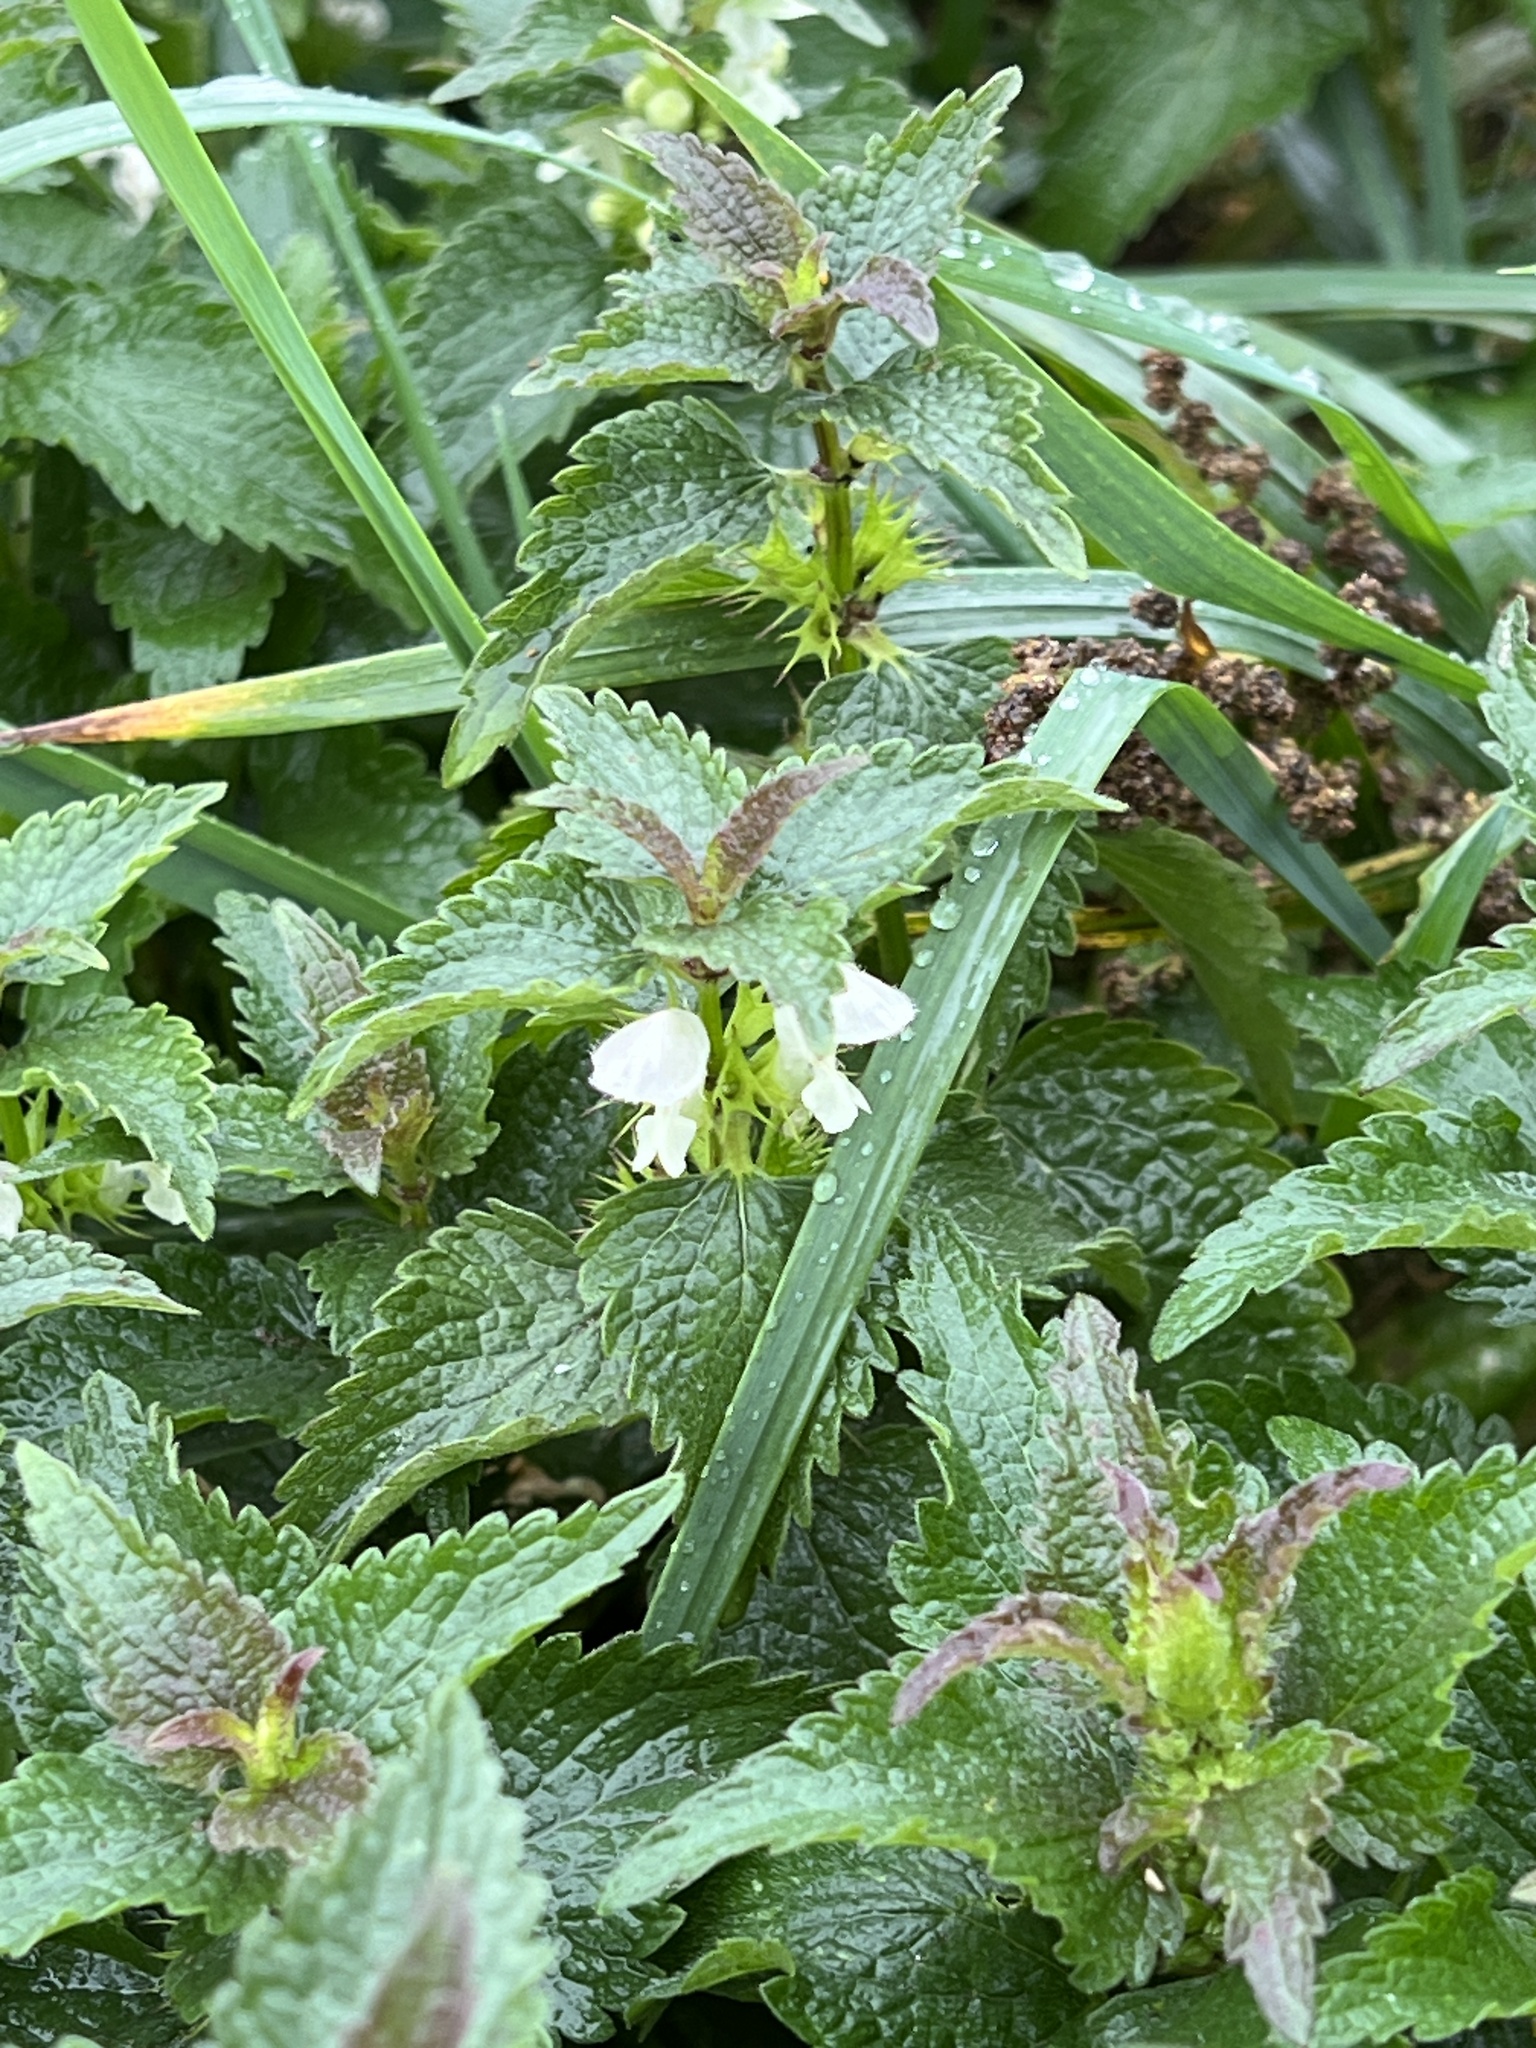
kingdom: Plantae
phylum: Tracheophyta
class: Magnoliopsida
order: Lamiales
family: Lamiaceae
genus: Lamium
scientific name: Lamium album
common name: White dead-nettle
